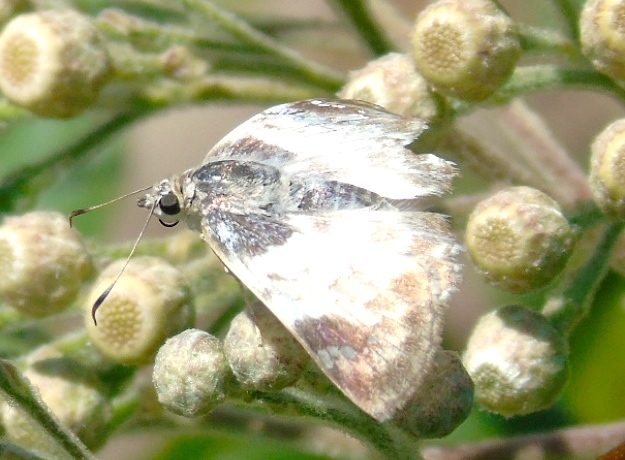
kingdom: Animalia
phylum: Arthropoda
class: Insecta
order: Lepidoptera
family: Hesperiidae
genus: Polyctor
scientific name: Polyctor cleta
